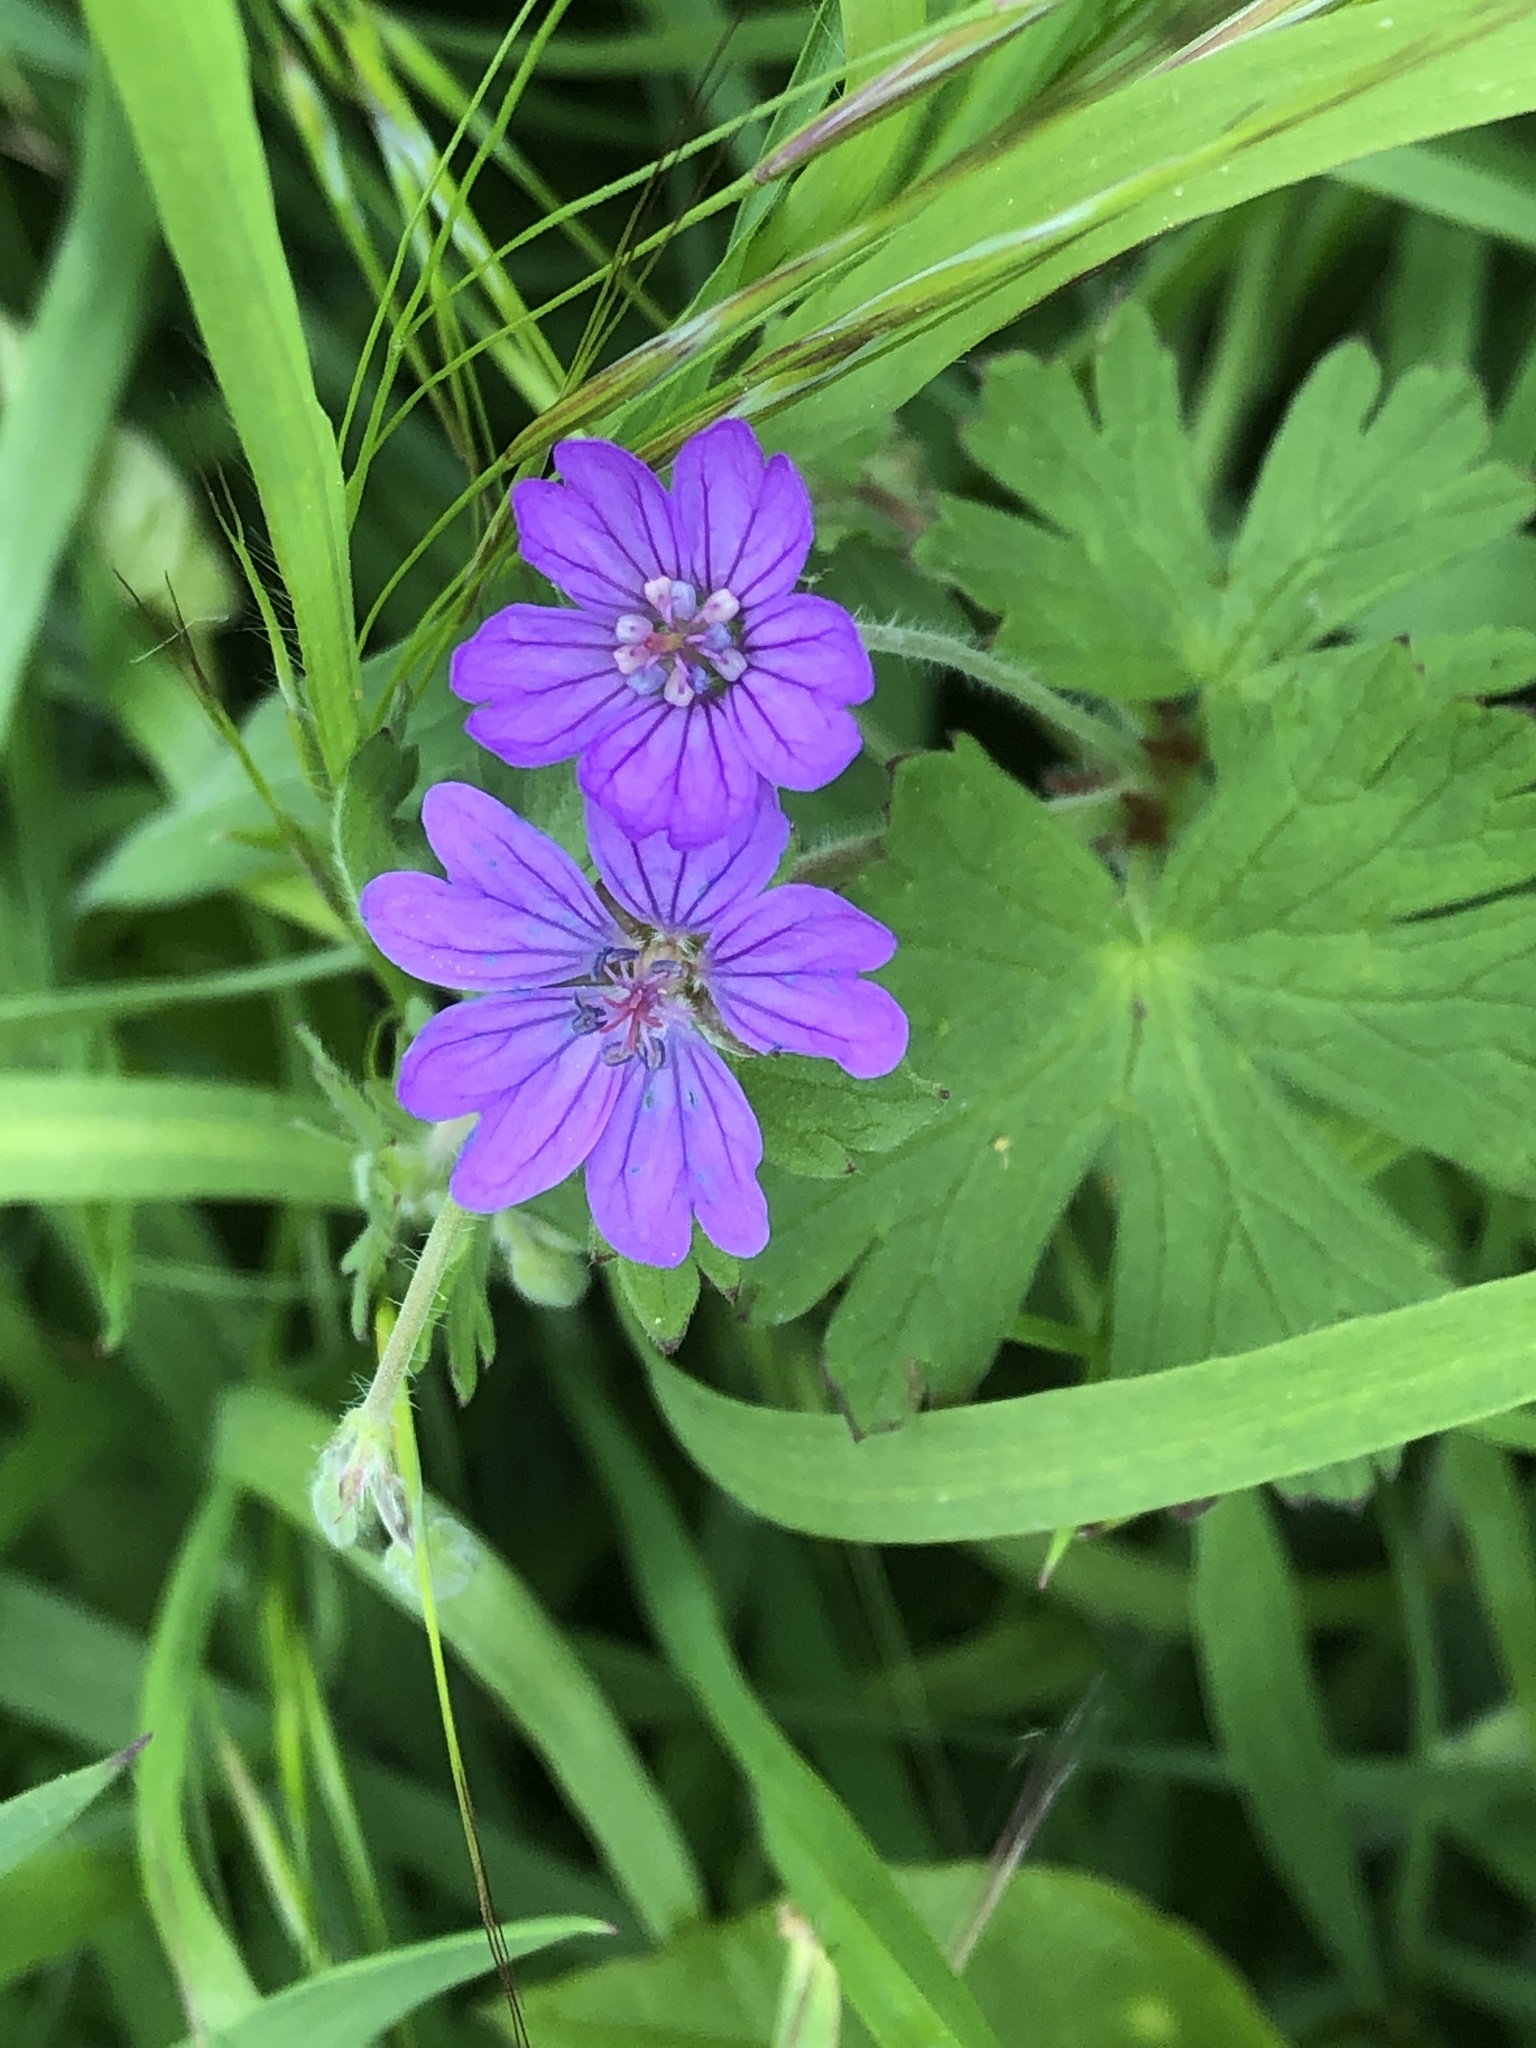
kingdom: Plantae
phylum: Tracheophyta
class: Magnoliopsida
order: Geraniales
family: Geraniaceae
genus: Geranium
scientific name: Geranium pyrenaicum
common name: Hedgerow crane's-bill
